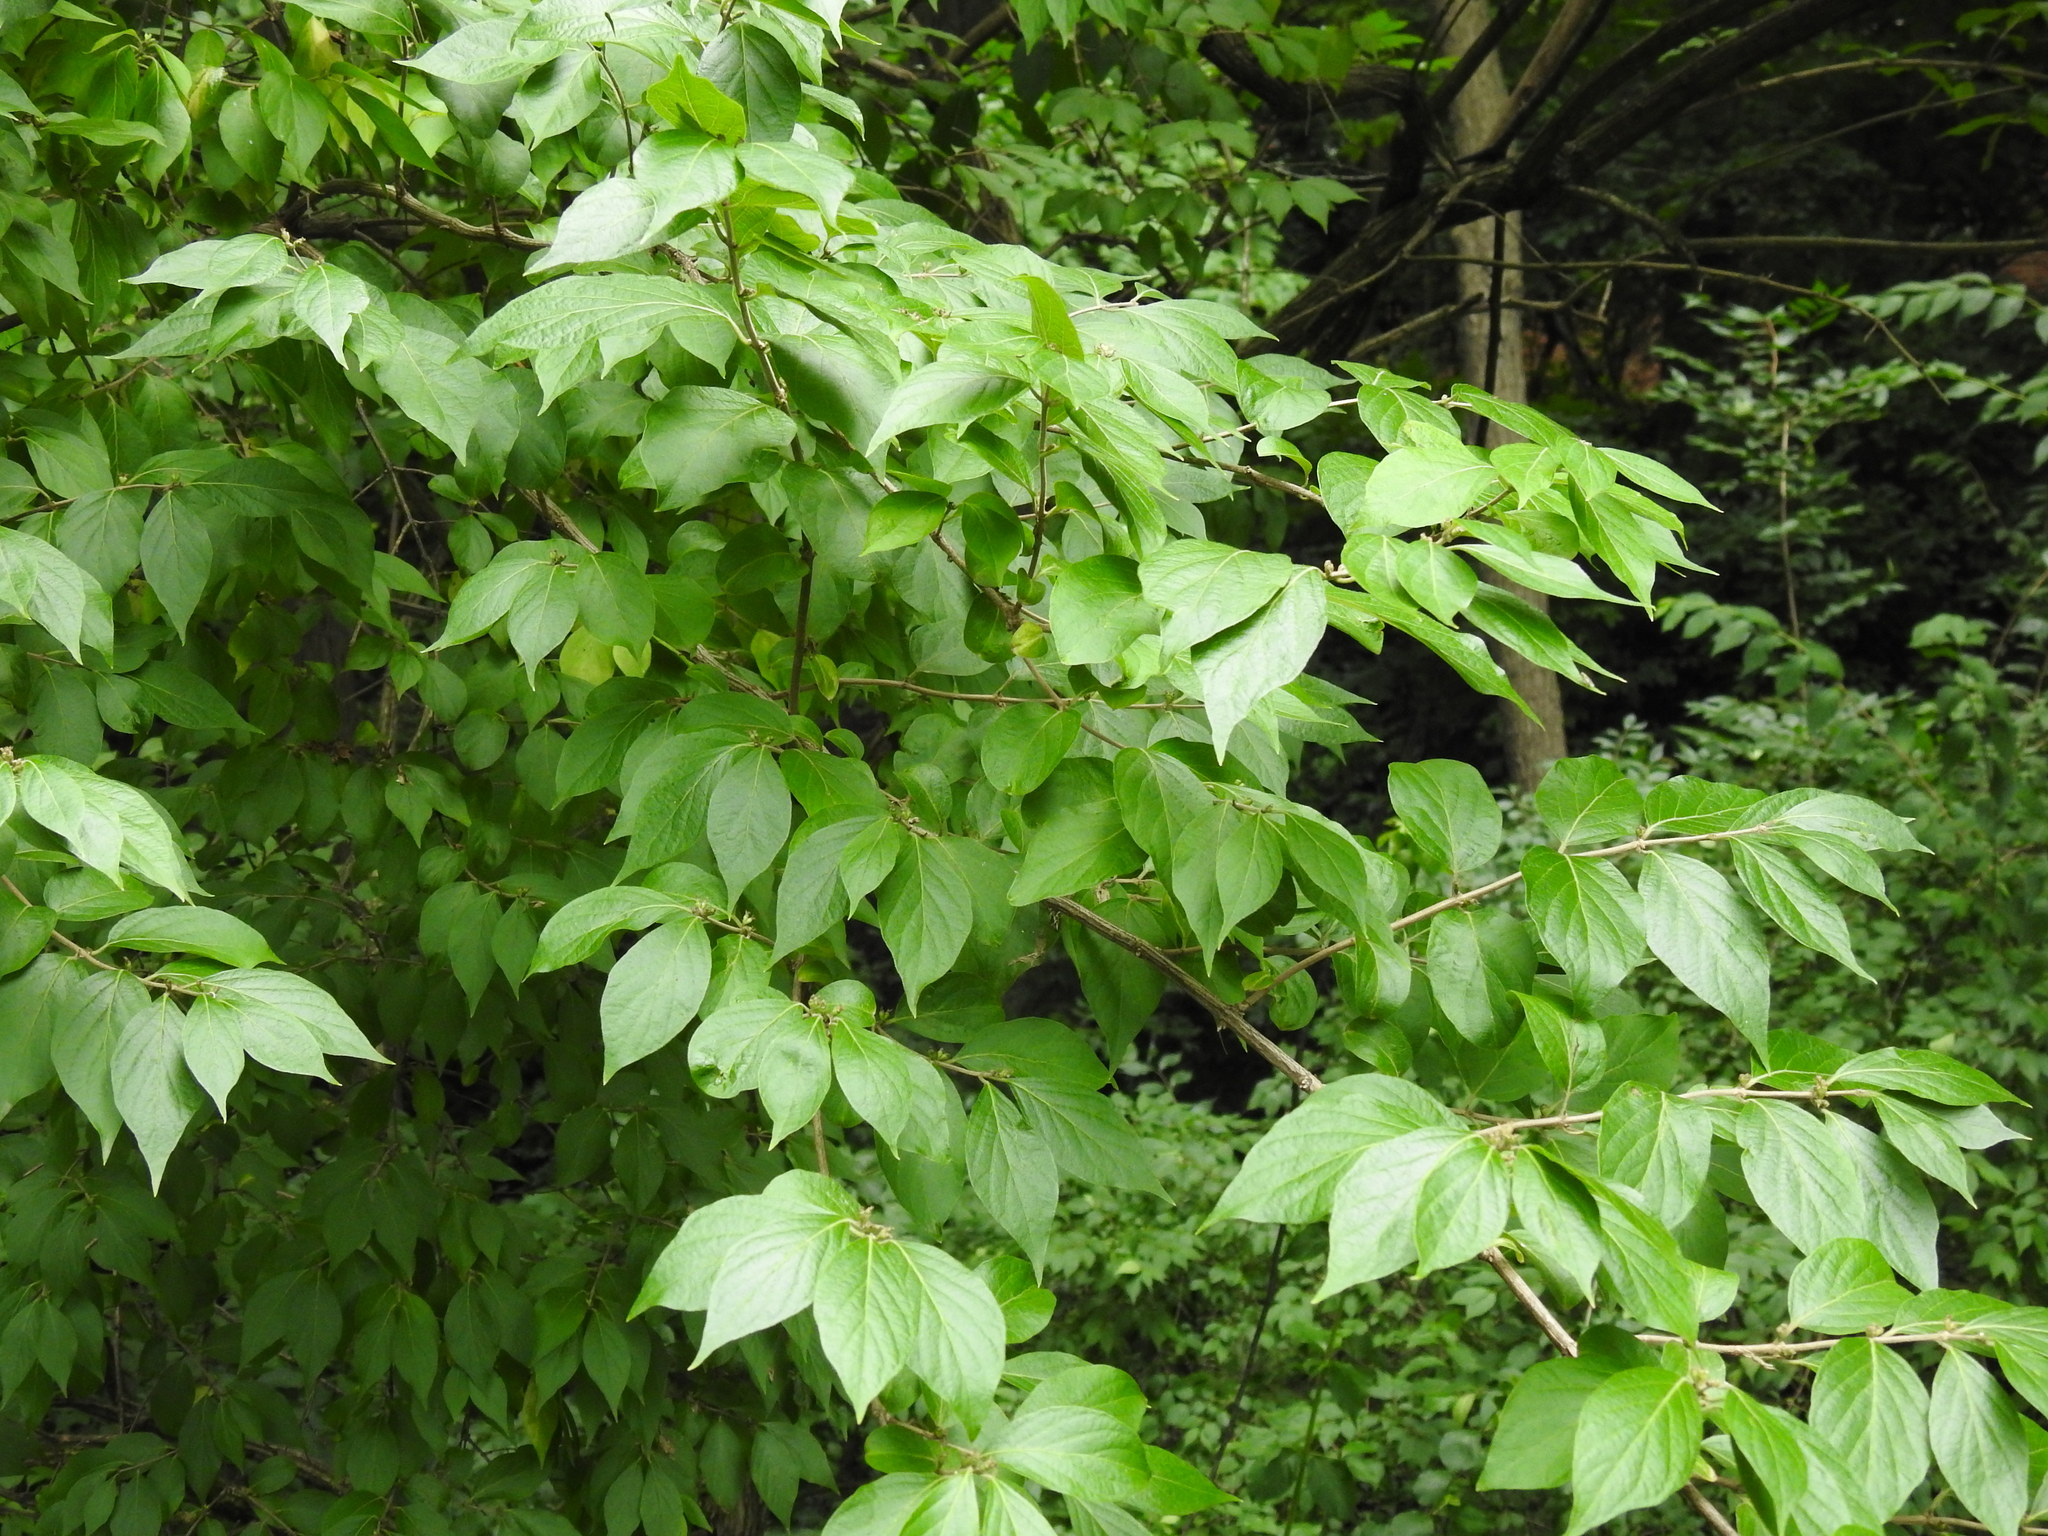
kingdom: Plantae
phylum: Tracheophyta
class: Magnoliopsida
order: Dipsacales
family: Caprifoliaceae
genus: Lonicera
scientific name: Lonicera maackii
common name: Amur honeysuckle
